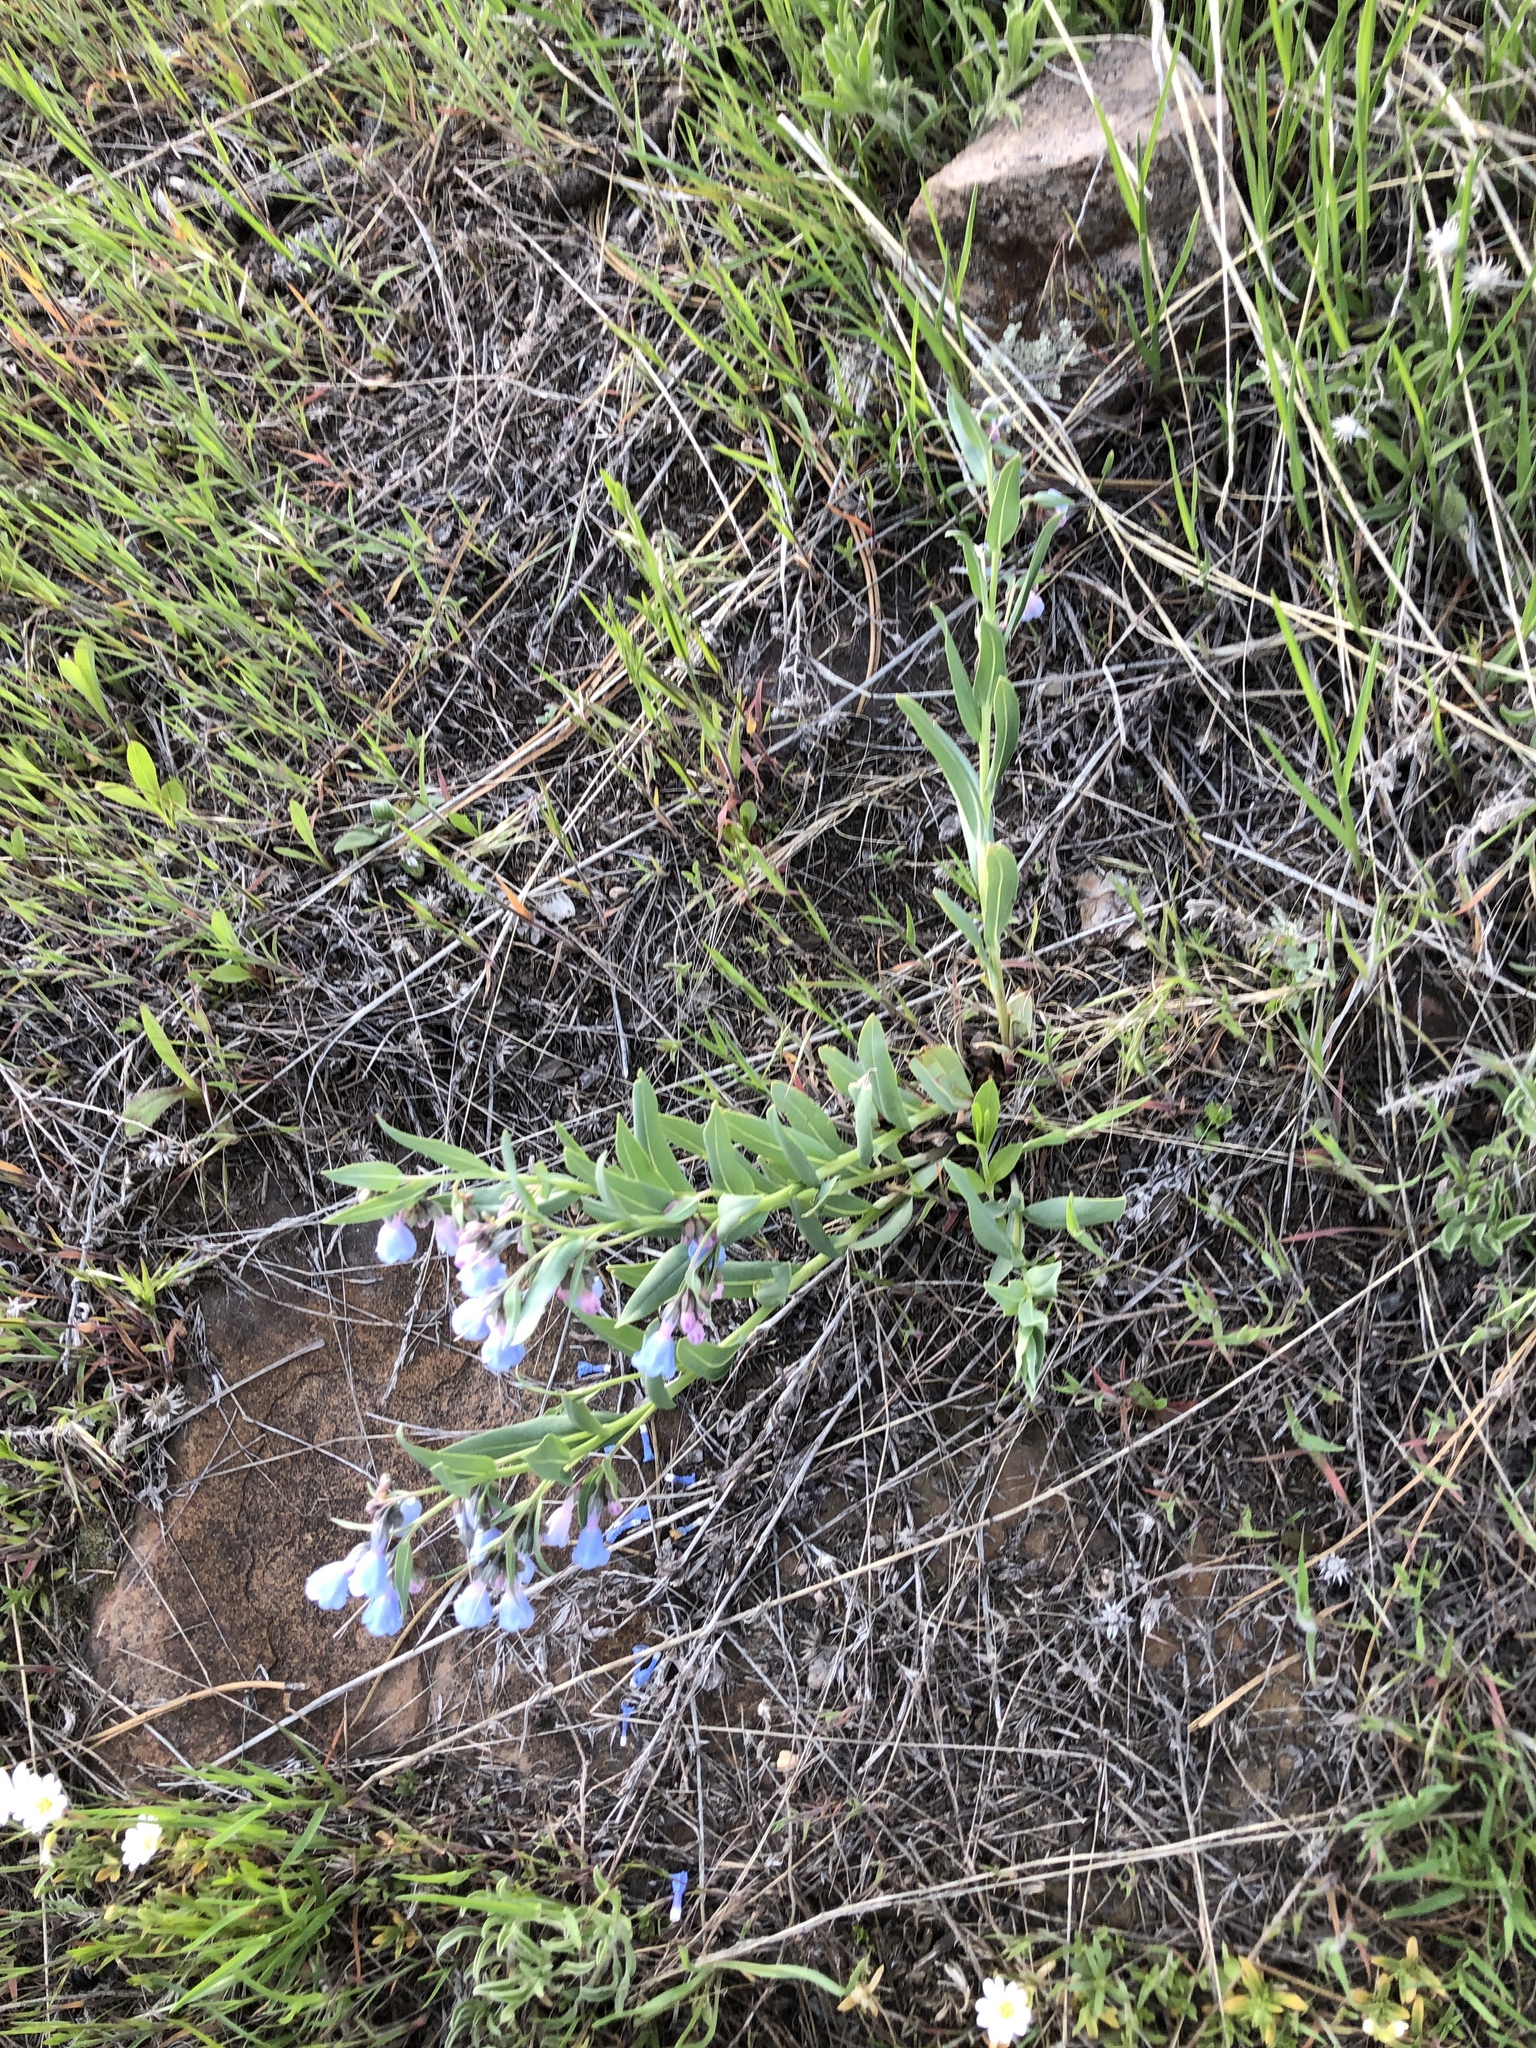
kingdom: Plantae
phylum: Tracheophyta
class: Magnoliopsida
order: Boraginales
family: Boraginaceae
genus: Mertensia
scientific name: Mertensia lanceolata
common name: Lance-leaved bluebells
